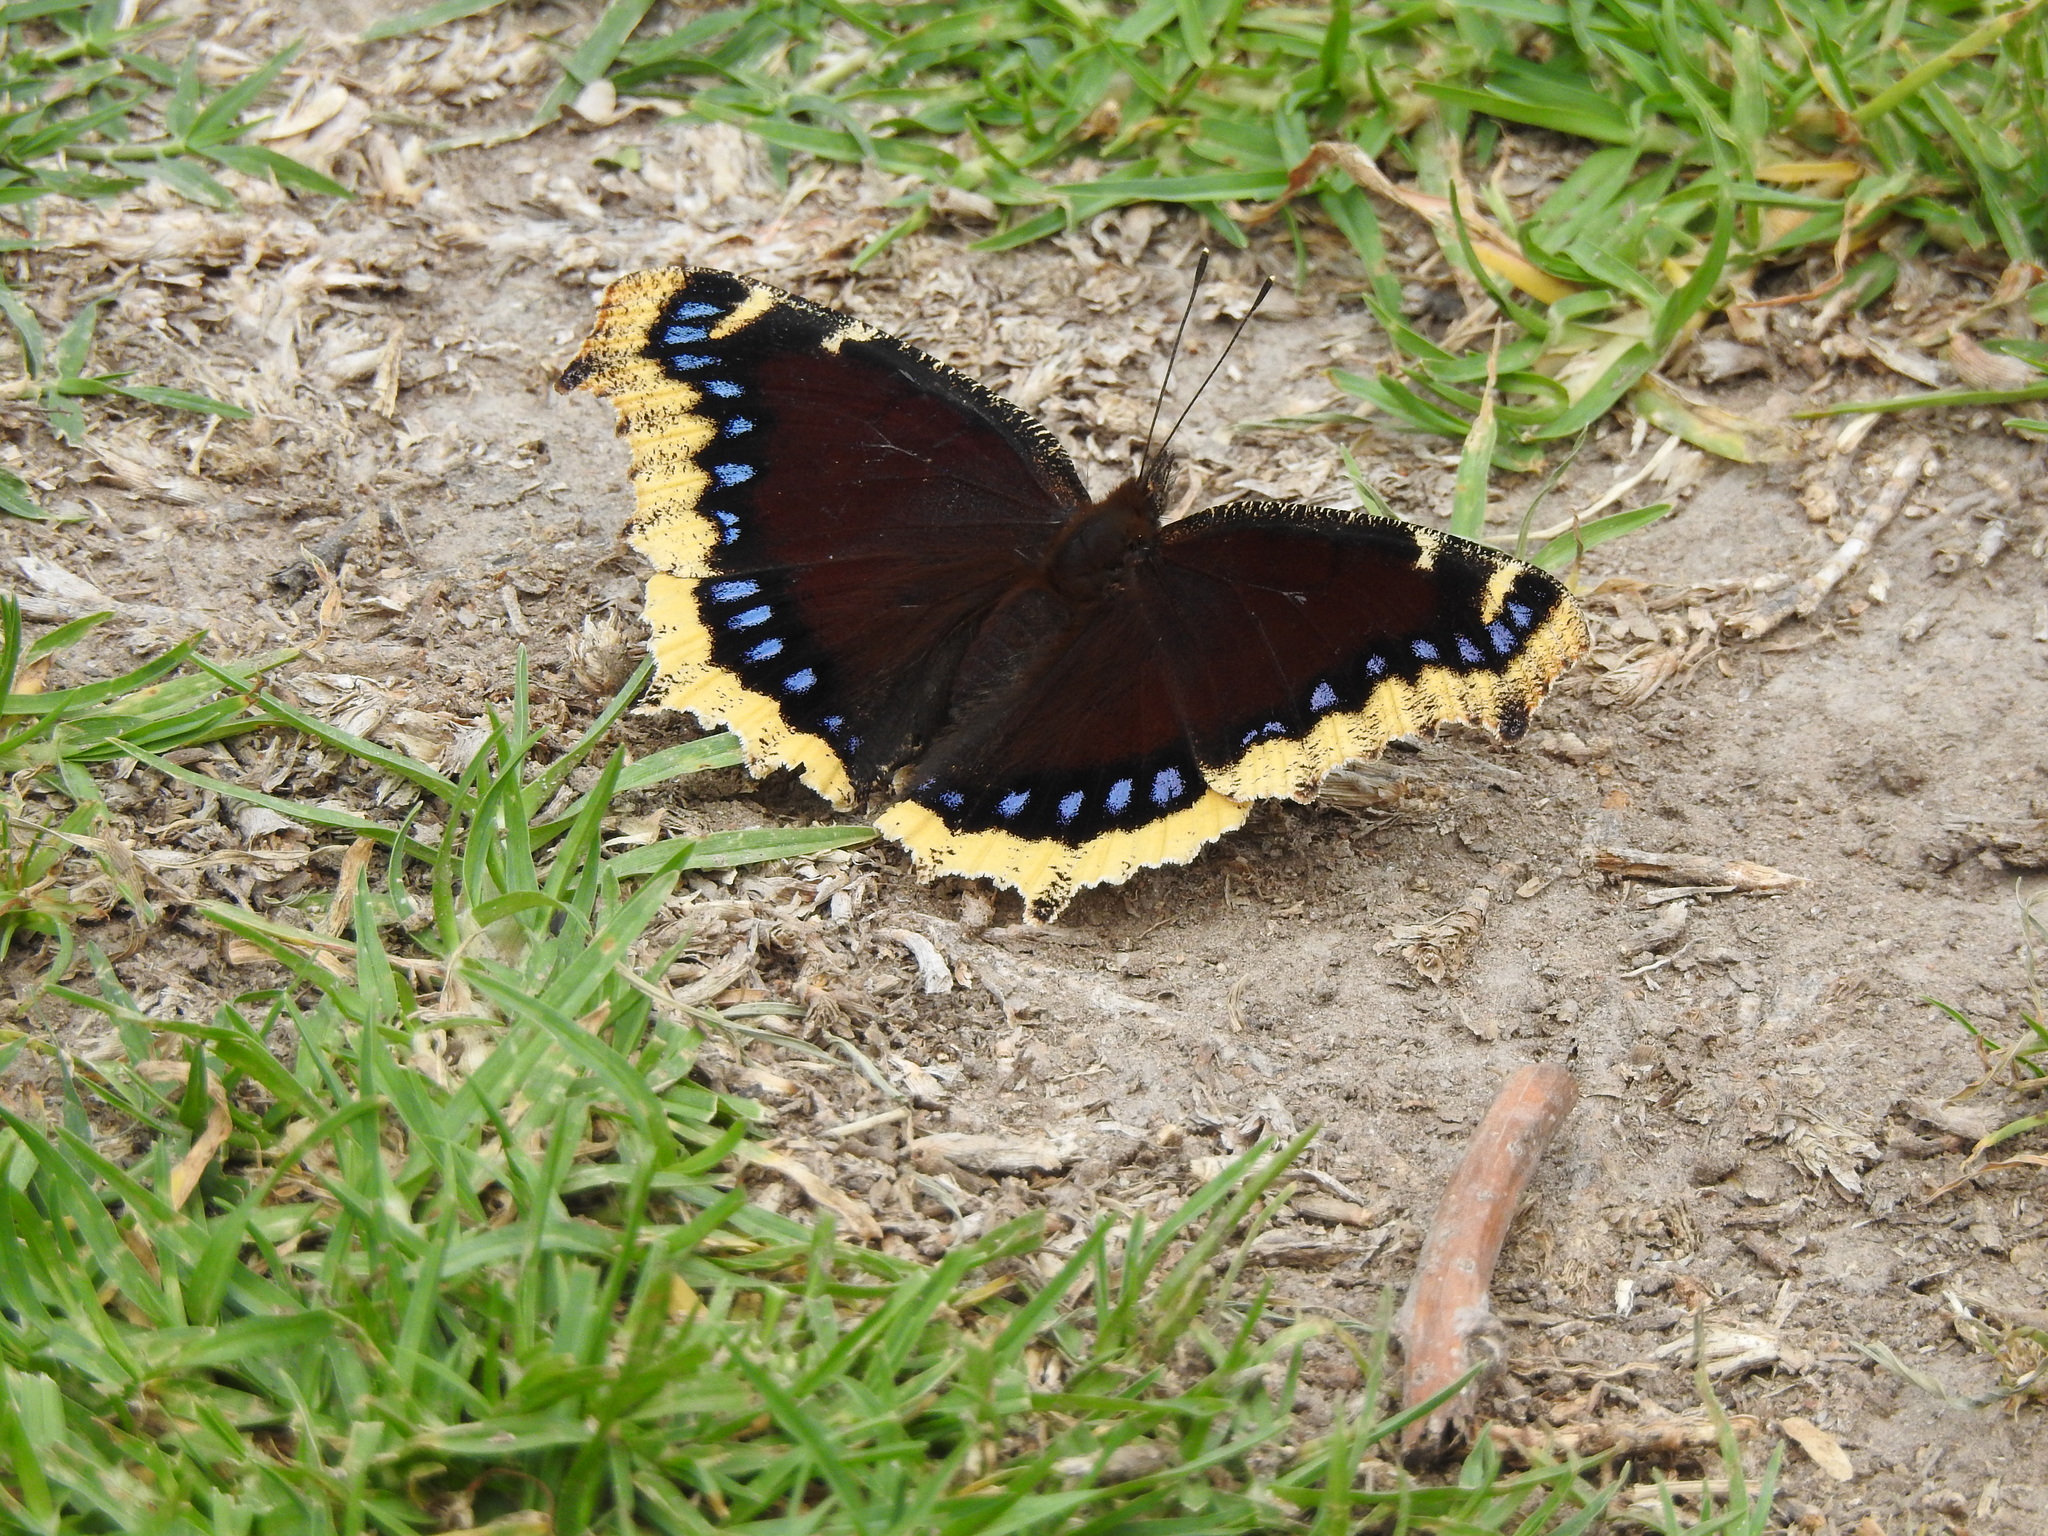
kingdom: Animalia
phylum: Arthropoda
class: Insecta
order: Lepidoptera
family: Nymphalidae
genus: Nymphalis
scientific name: Nymphalis antiopa
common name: Camberwell beauty
